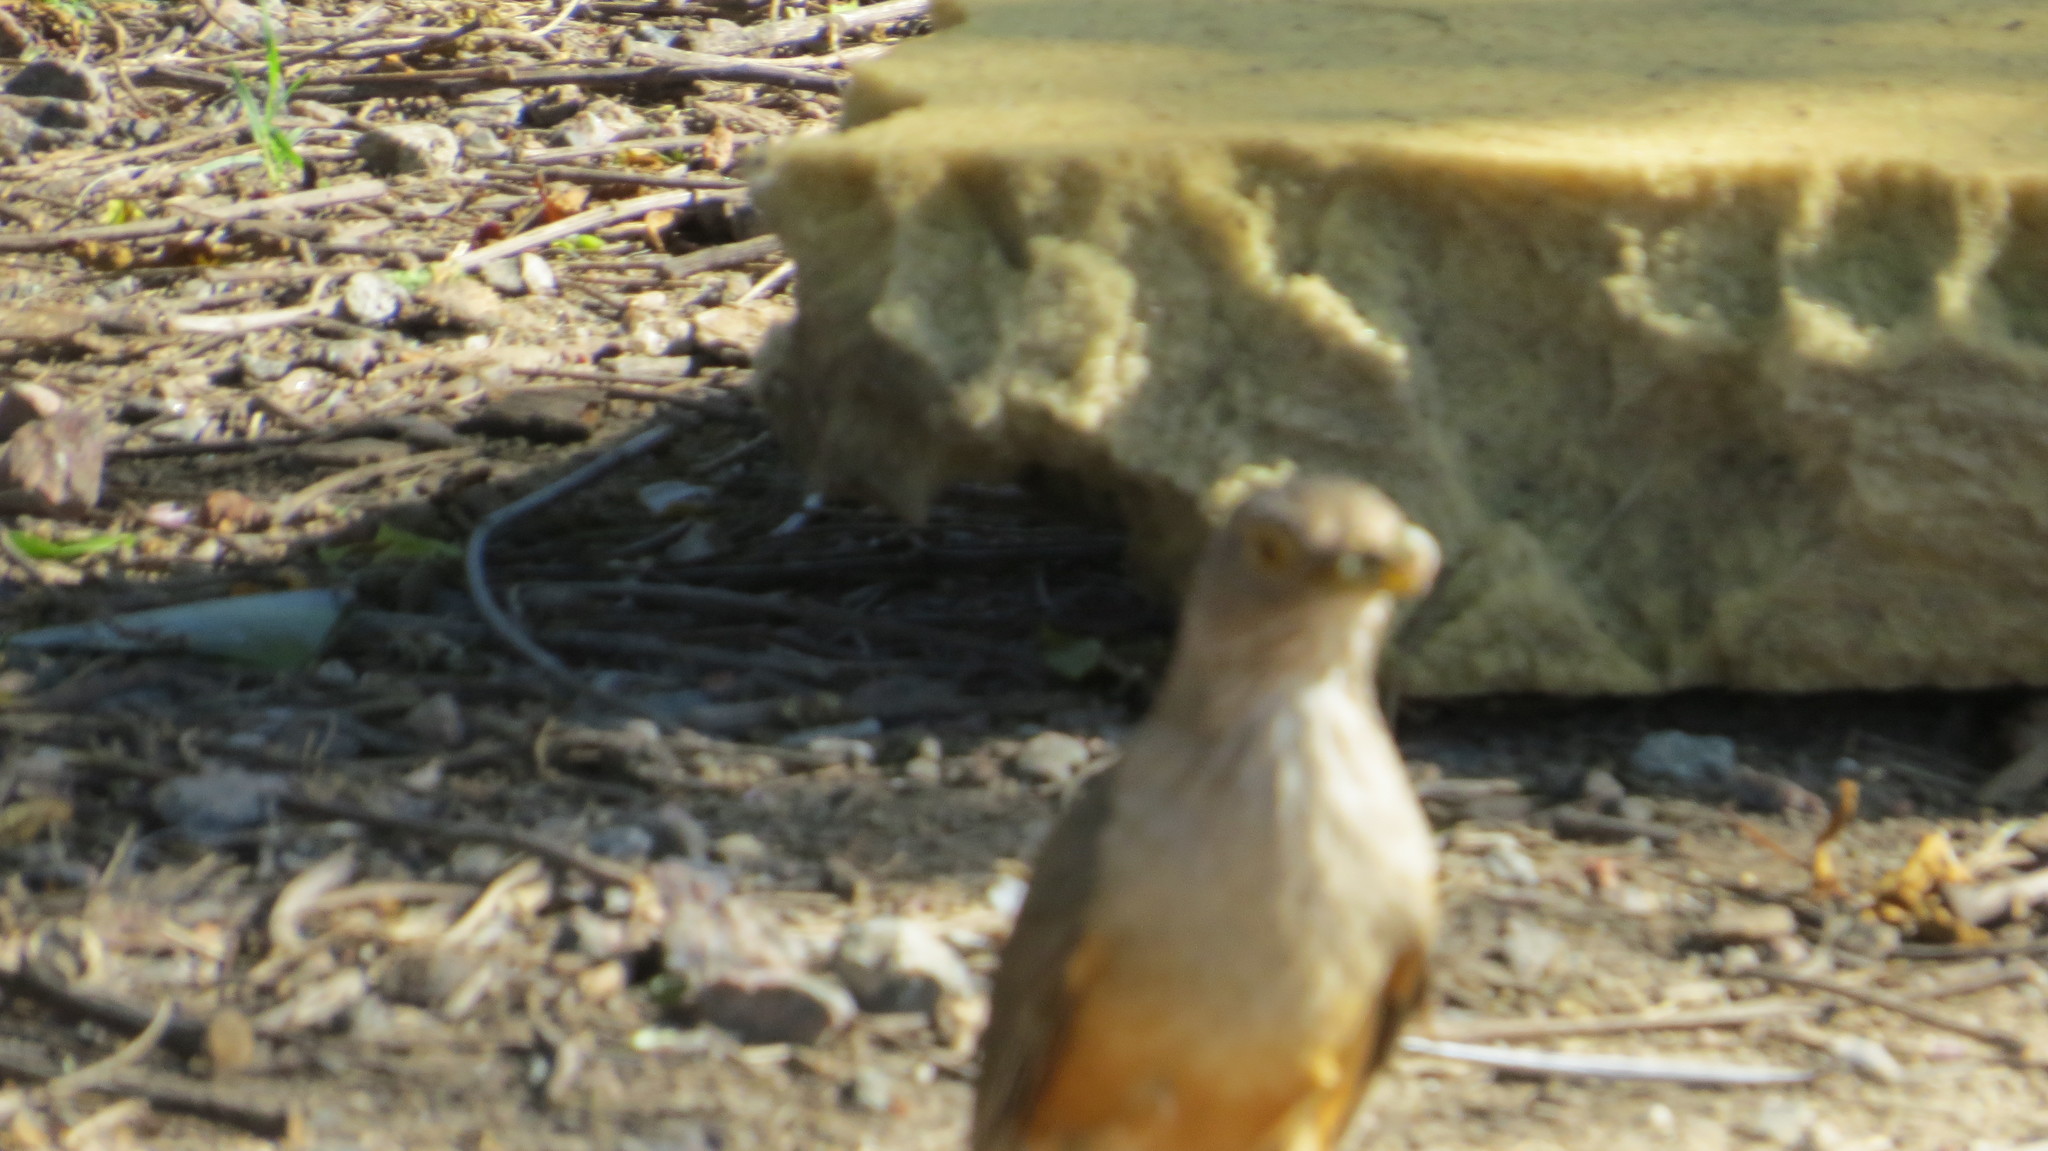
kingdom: Animalia
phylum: Chordata
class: Aves
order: Passeriformes
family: Turdidae
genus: Turdus
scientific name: Turdus rufiventris
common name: Rufous-bellied thrush
